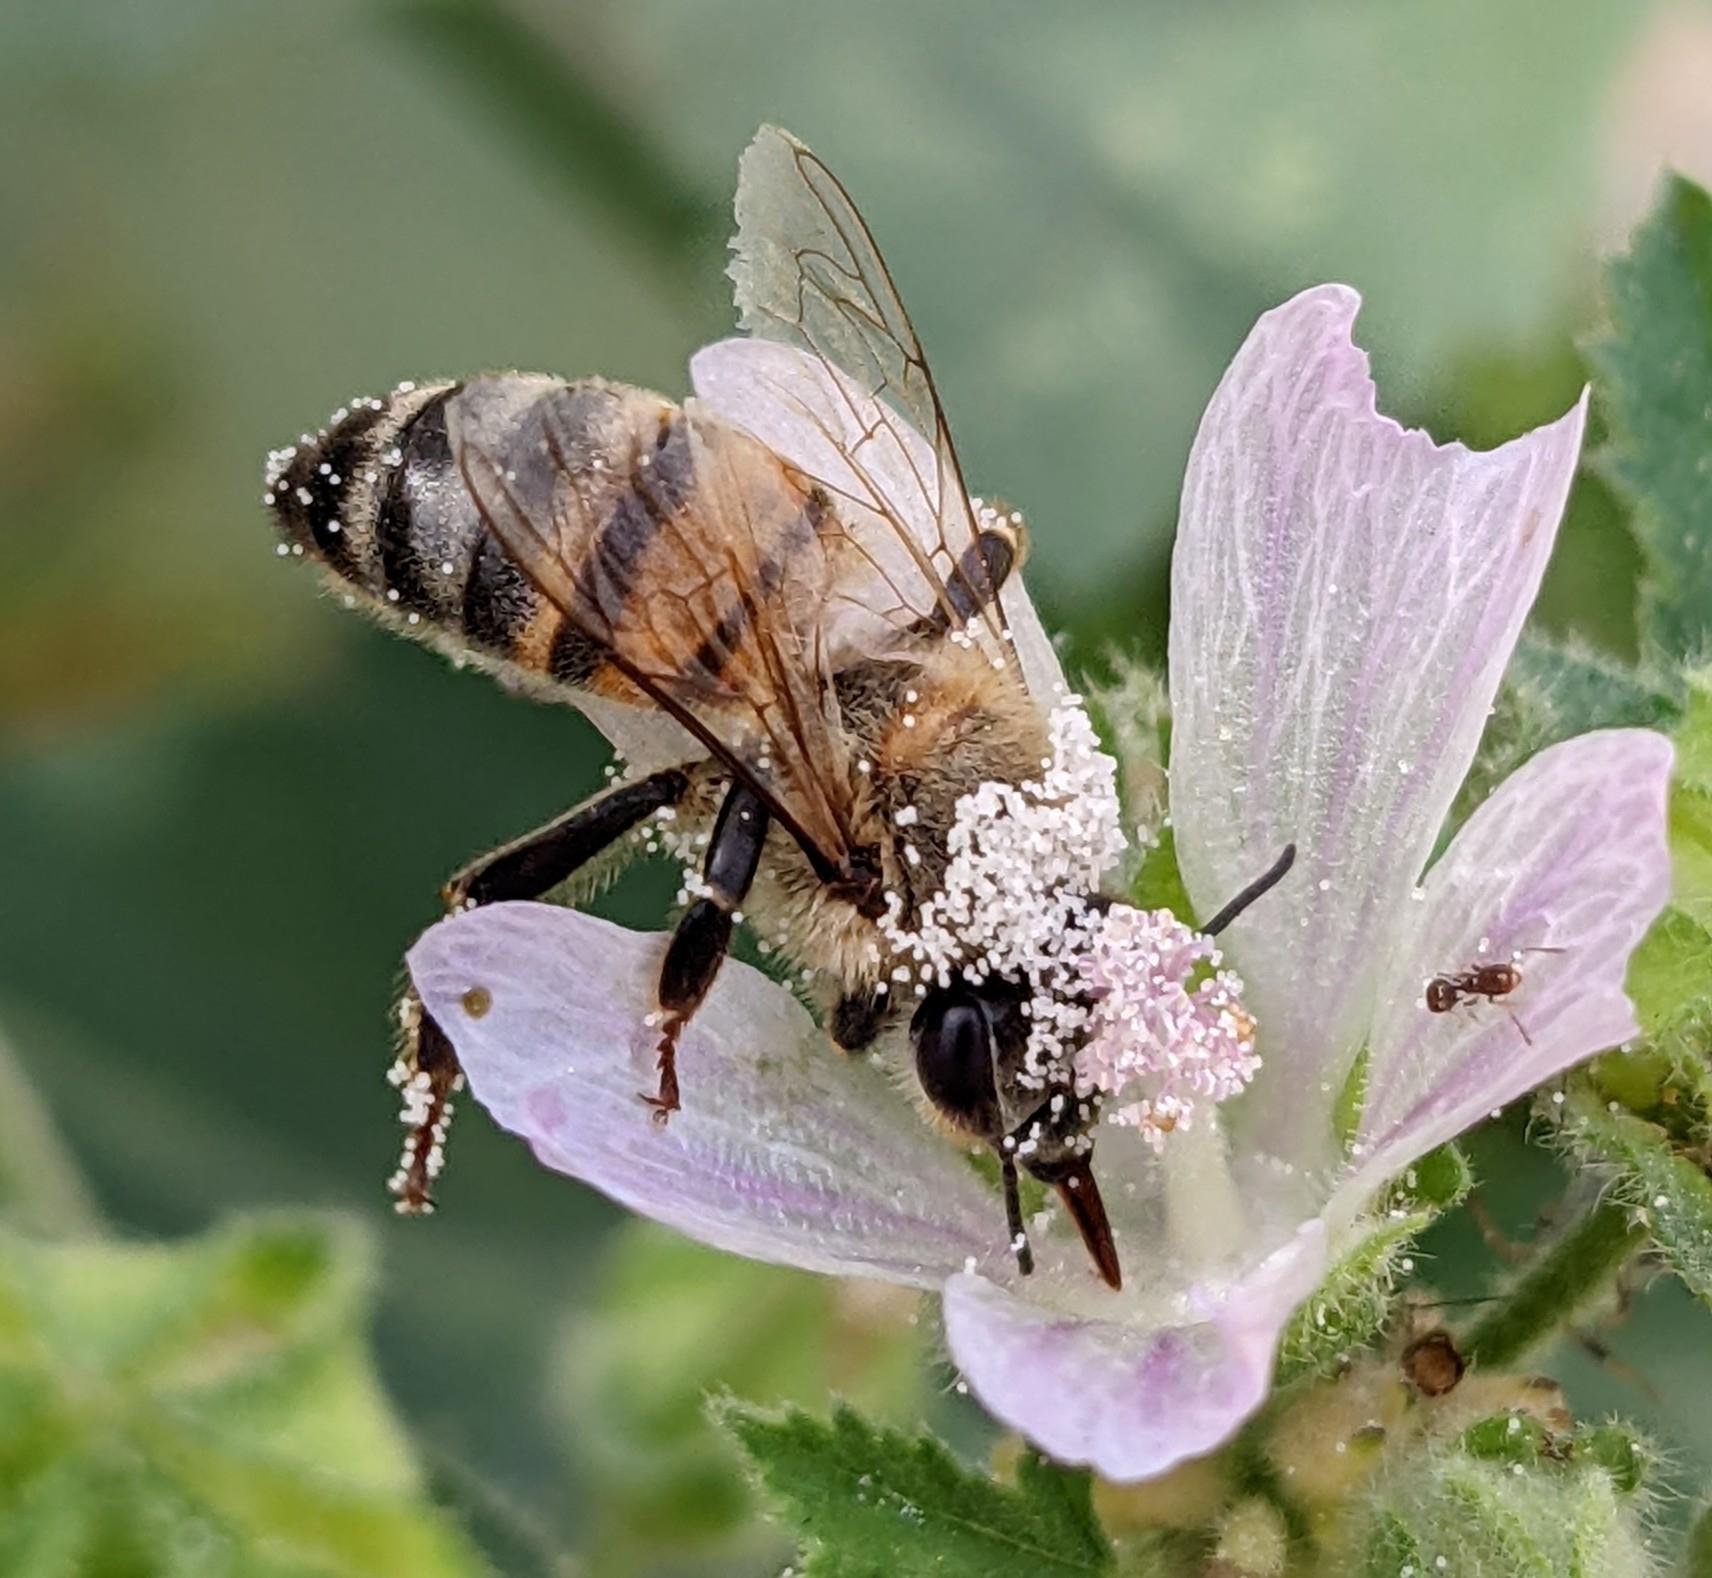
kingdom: Animalia
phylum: Arthropoda
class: Insecta
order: Hymenoptera
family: Apidae
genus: Apis
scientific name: Apis mellifera
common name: Honey bee
